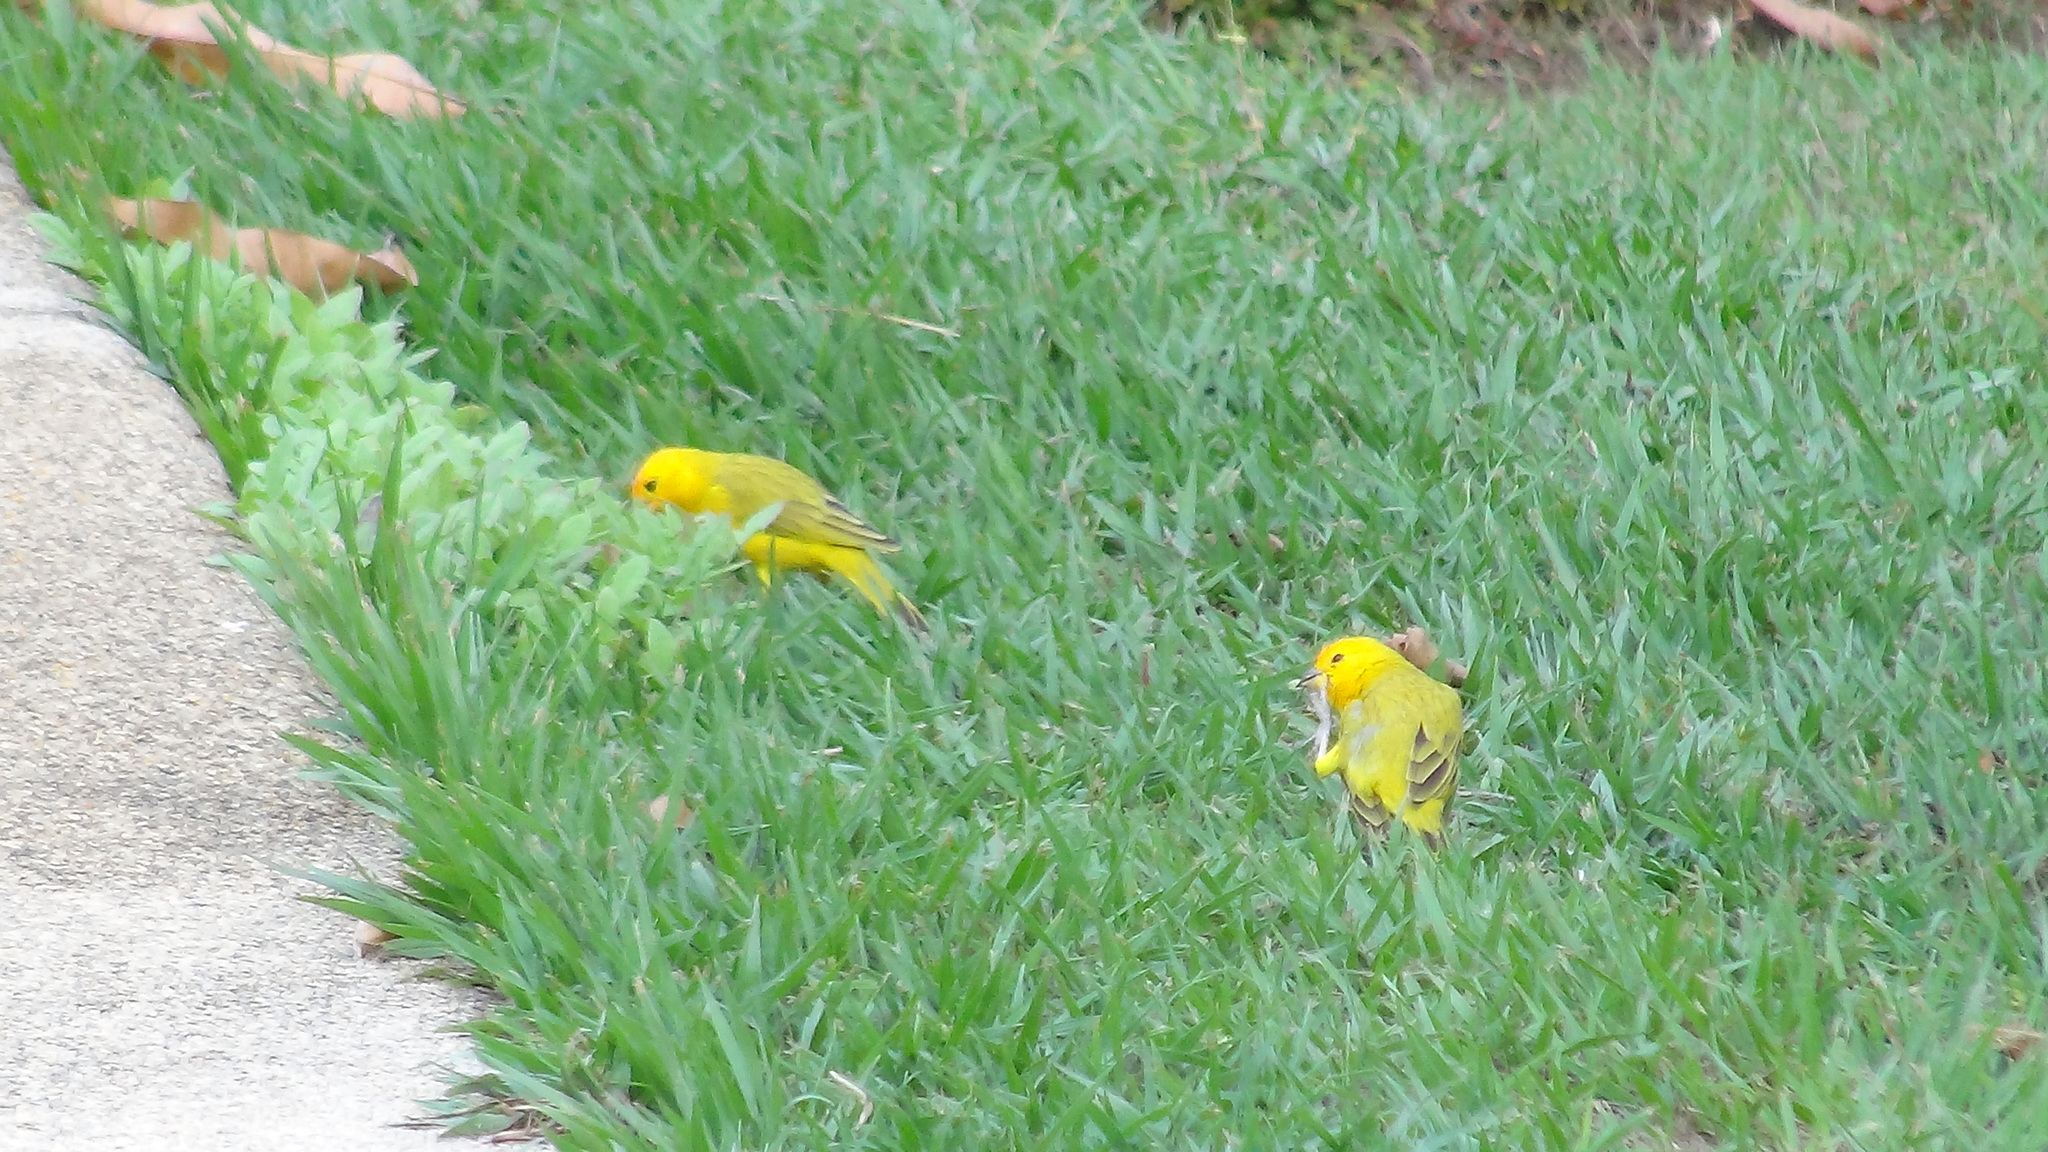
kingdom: Animalia
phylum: Chordata
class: Aves
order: Passeriformes
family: Thraupidae
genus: Sicalis
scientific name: Sicalis flaveola
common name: Saffron finch
